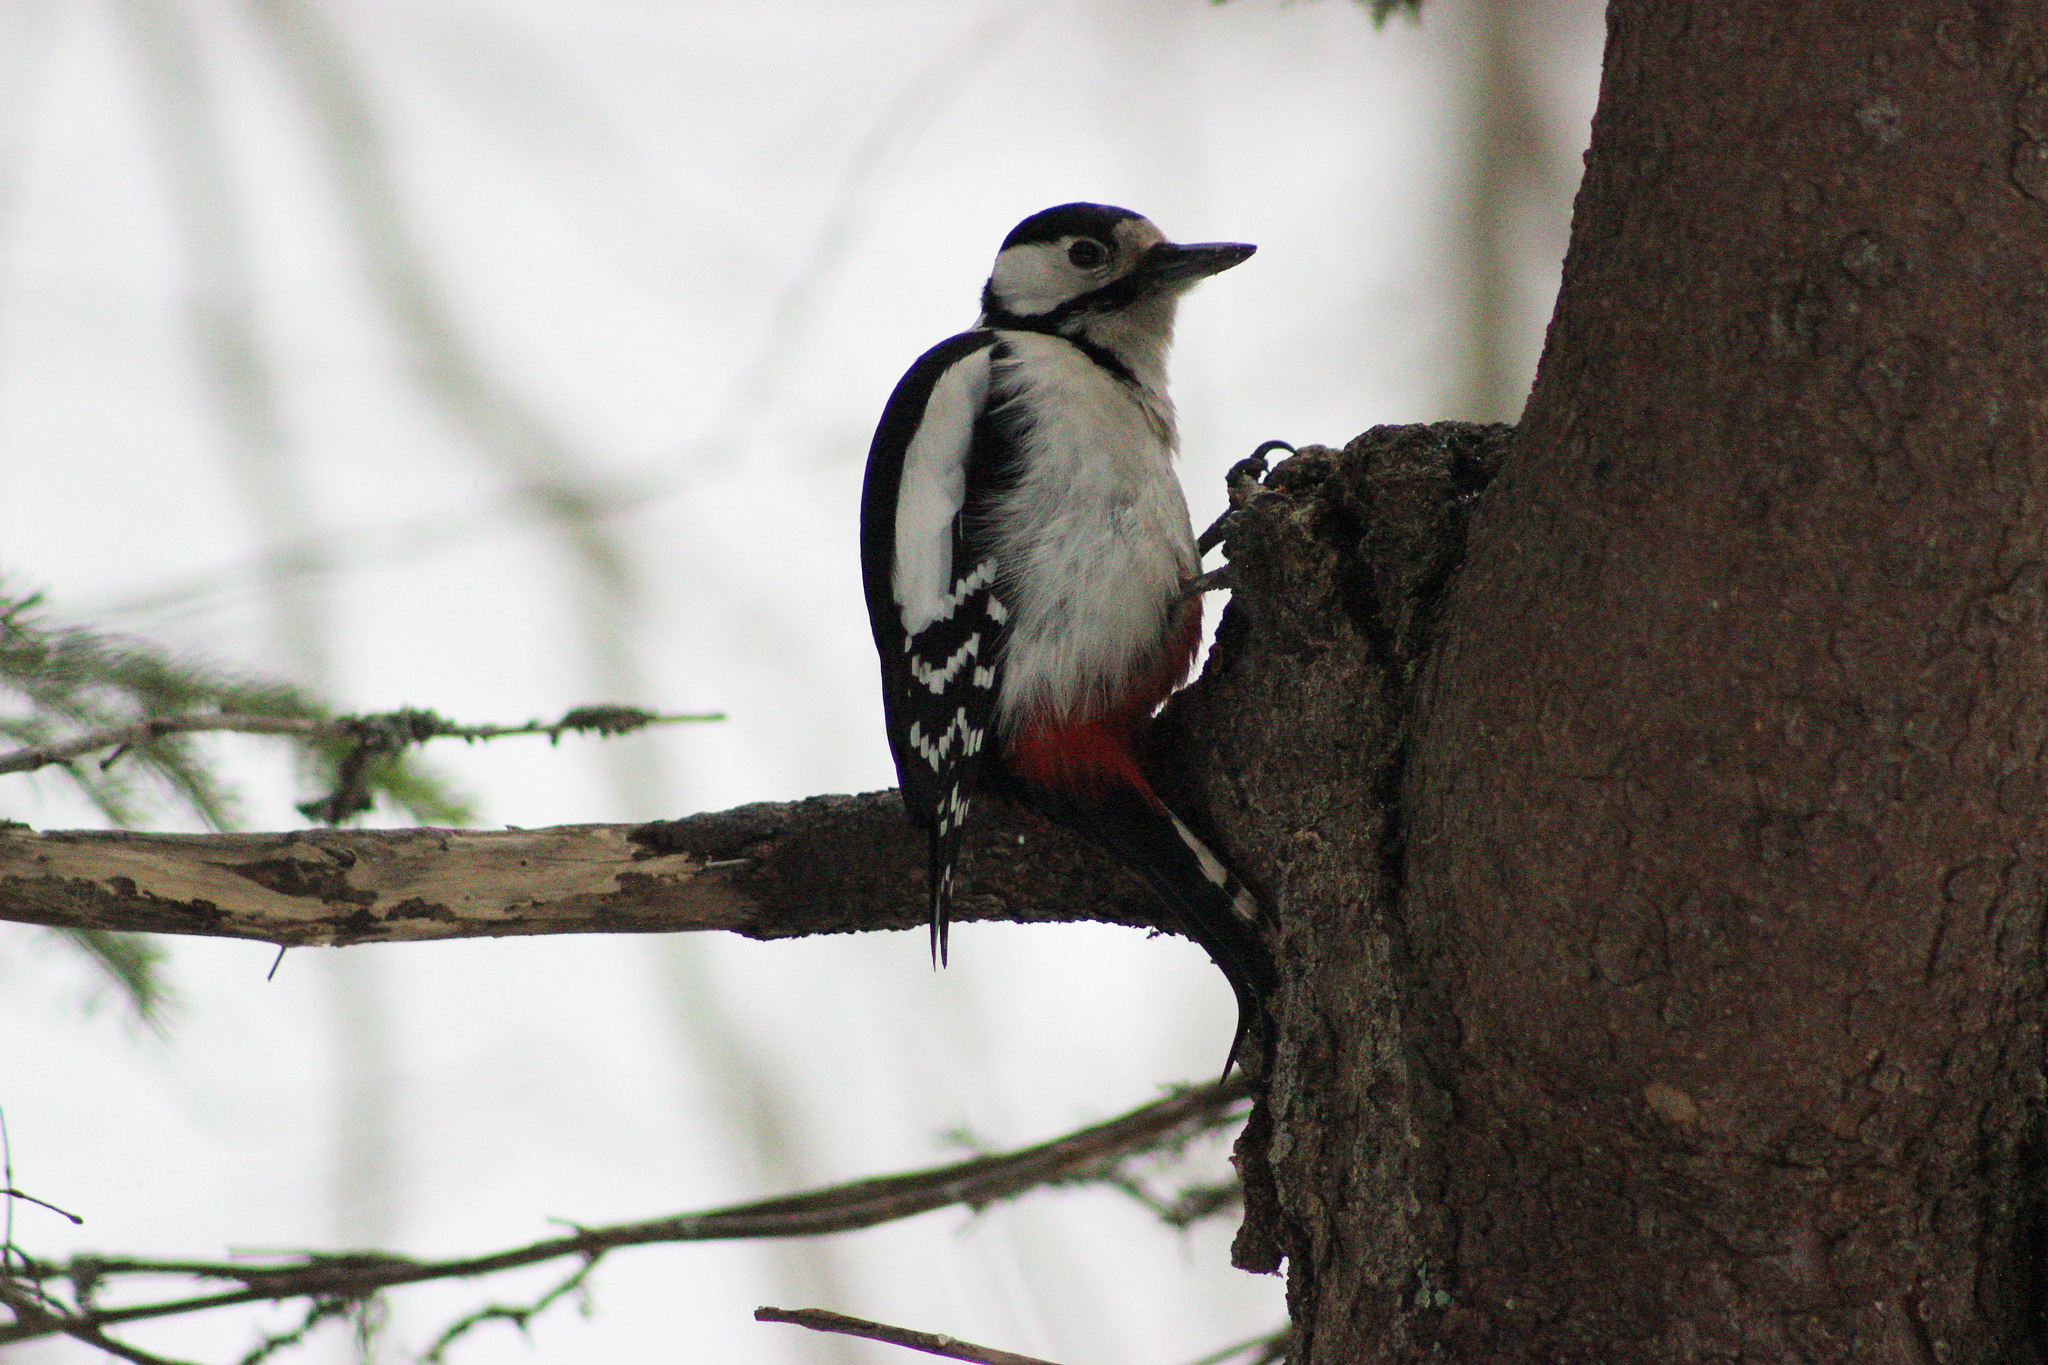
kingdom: Animalia
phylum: Chordata
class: Aves
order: Piciformes
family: Picidae
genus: Dendrocopos
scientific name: Dendrocopos major
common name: Great spotted woodpecker
